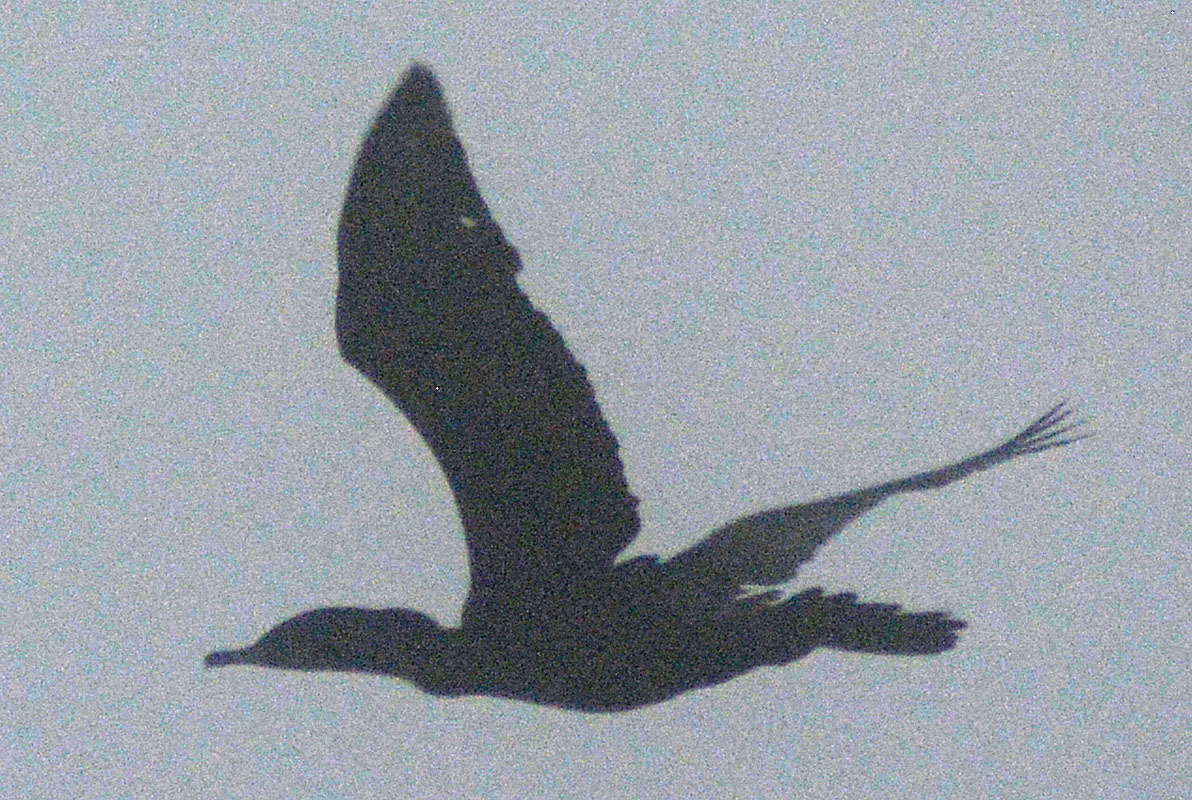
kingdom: Animalia
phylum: Chordata
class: Aves
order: Suliformes
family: Phalacrocoracidae
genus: Phalacrocorax
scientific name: Phalacrocorax brasilianus
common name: Neotropic cormorant
